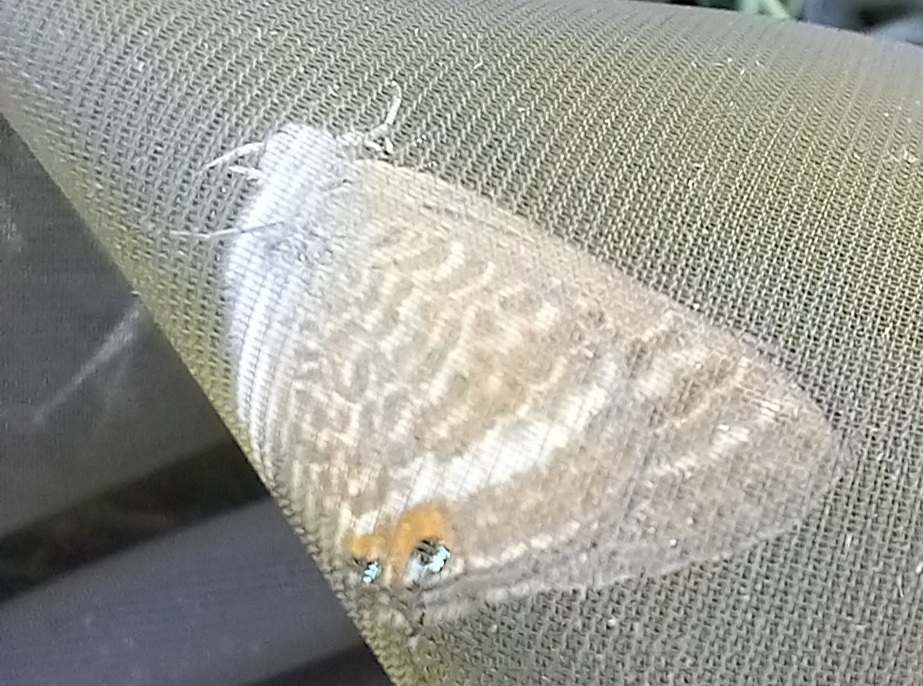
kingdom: Animalia
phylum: Arthropoda
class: Insecta
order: Lepidoptera
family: Lycaenidae
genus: Lampides
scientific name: Lampides boeticus
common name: Long-tailed blue
